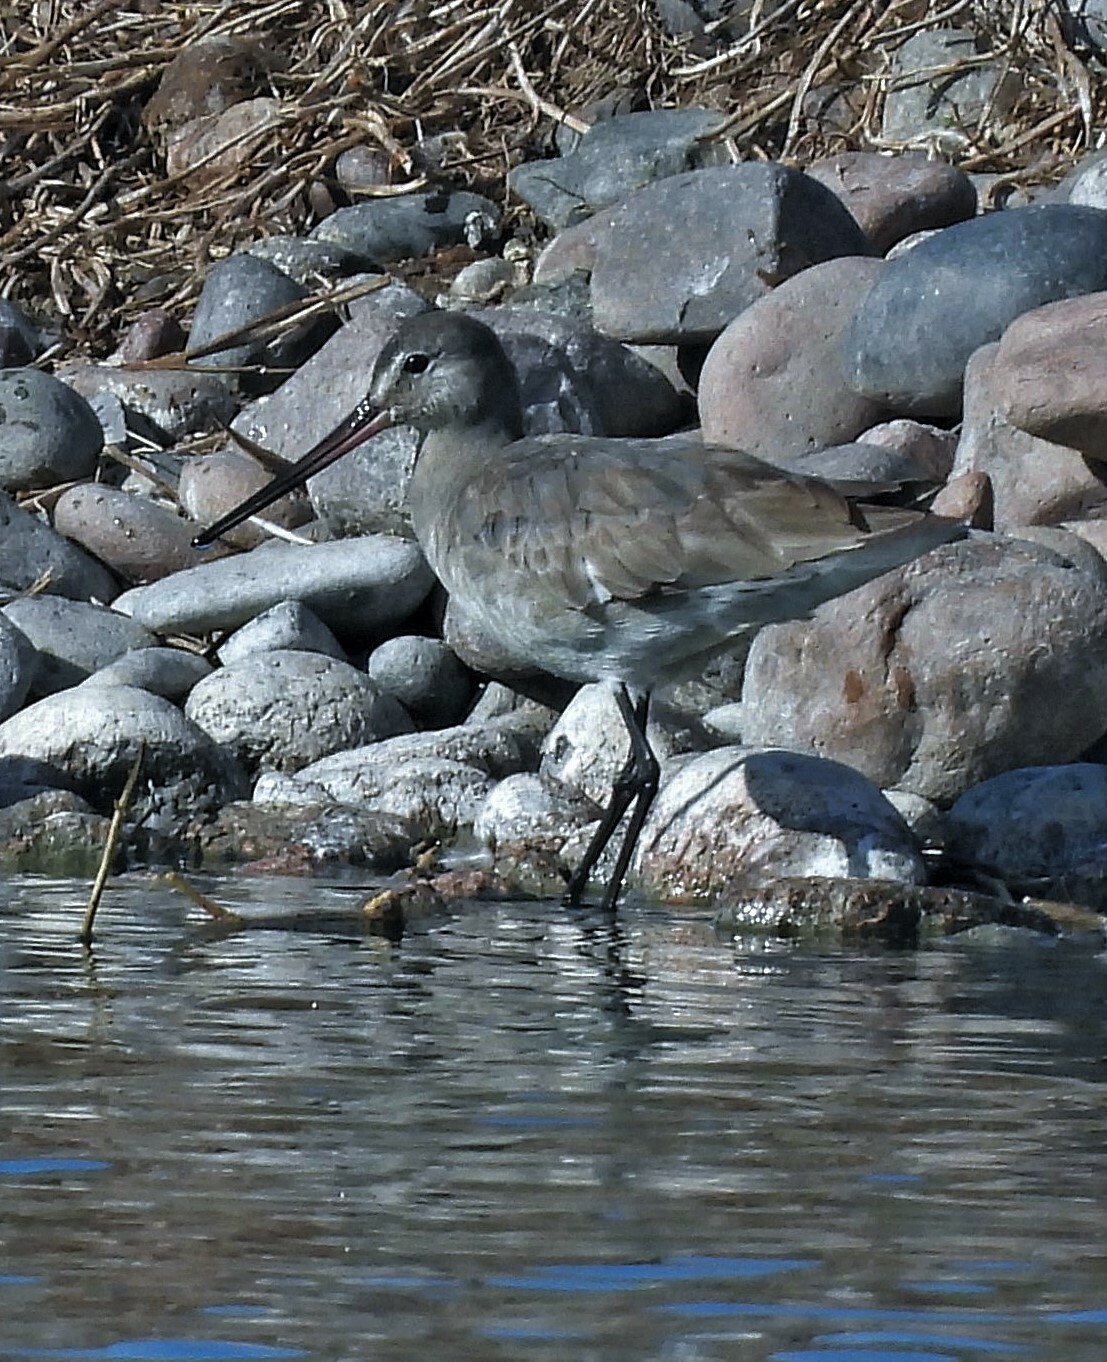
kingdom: Animalia
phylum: Chordata
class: Aves
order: Charadriiformes
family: Scolopacidae
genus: Limosa
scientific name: Limosa haemastica
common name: Hudsonian godwit
